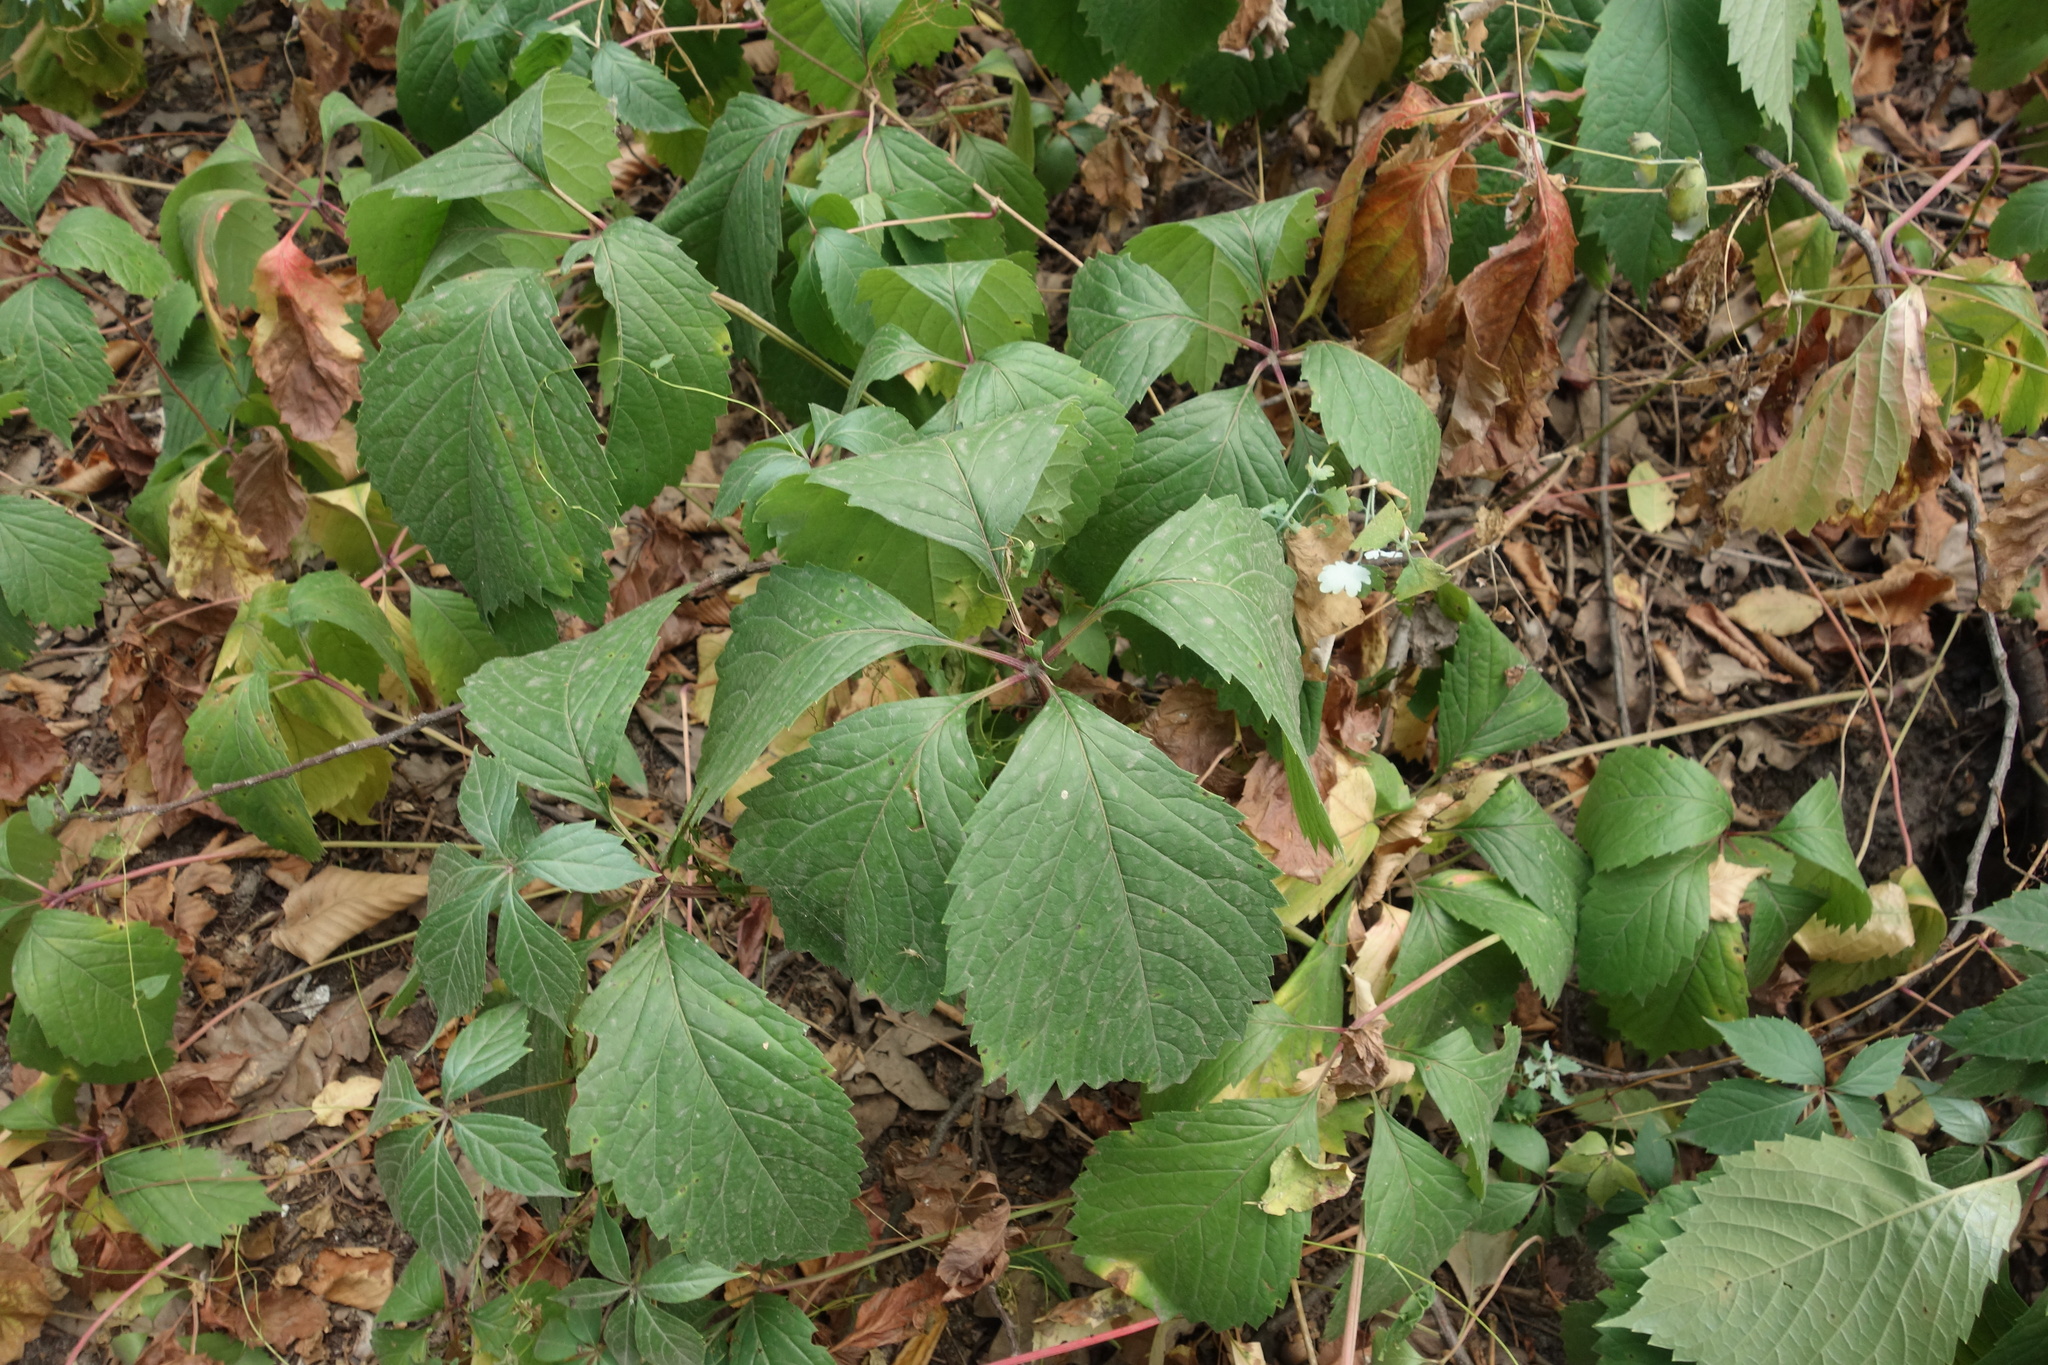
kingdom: Plantae
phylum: Tracheophyta
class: Magnoliopsida
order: Vitales
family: Vitaceae
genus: Parthenocissus
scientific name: Parthenocissus inserta
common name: False virginia-creeper
